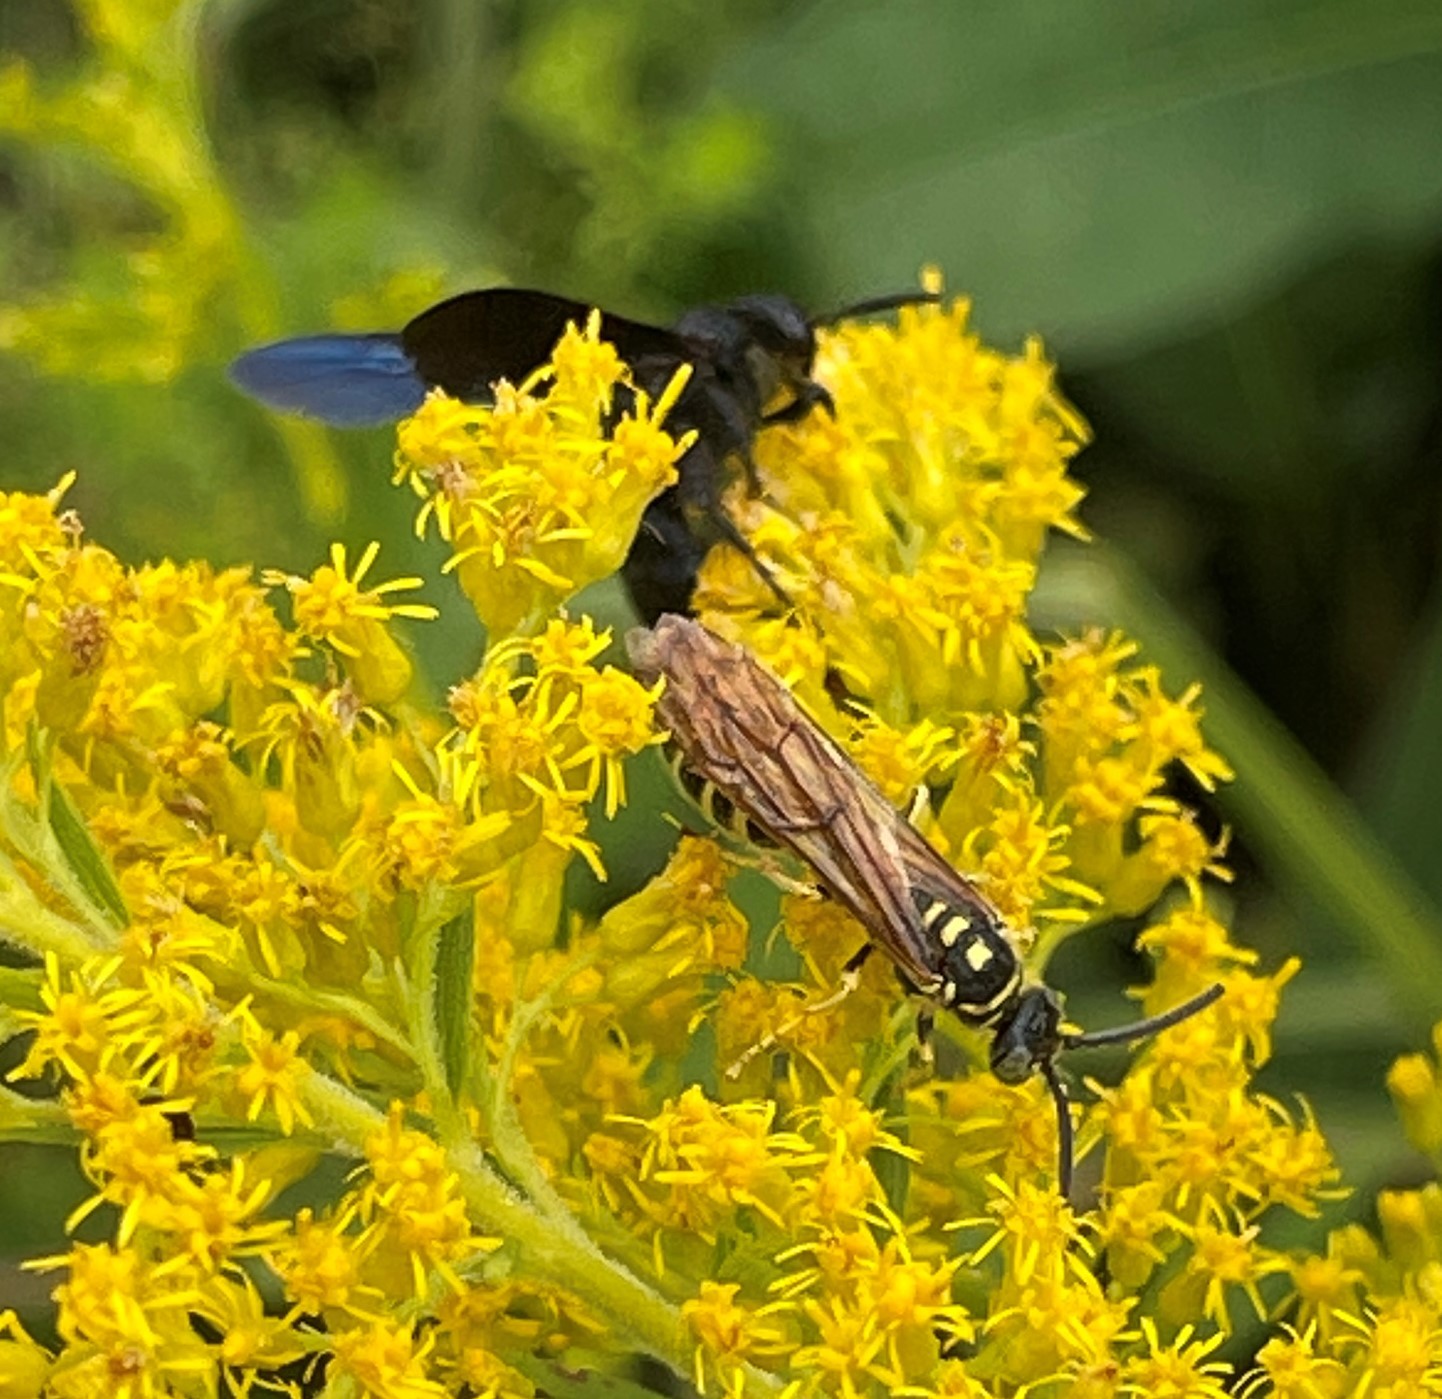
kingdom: Animalia
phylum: Arthropoda
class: Insecta
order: Hymenoptera
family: Tiphiidae
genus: Myzinum
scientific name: Myzinum quinquecinctum
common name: Five-banded thynnid wasp
